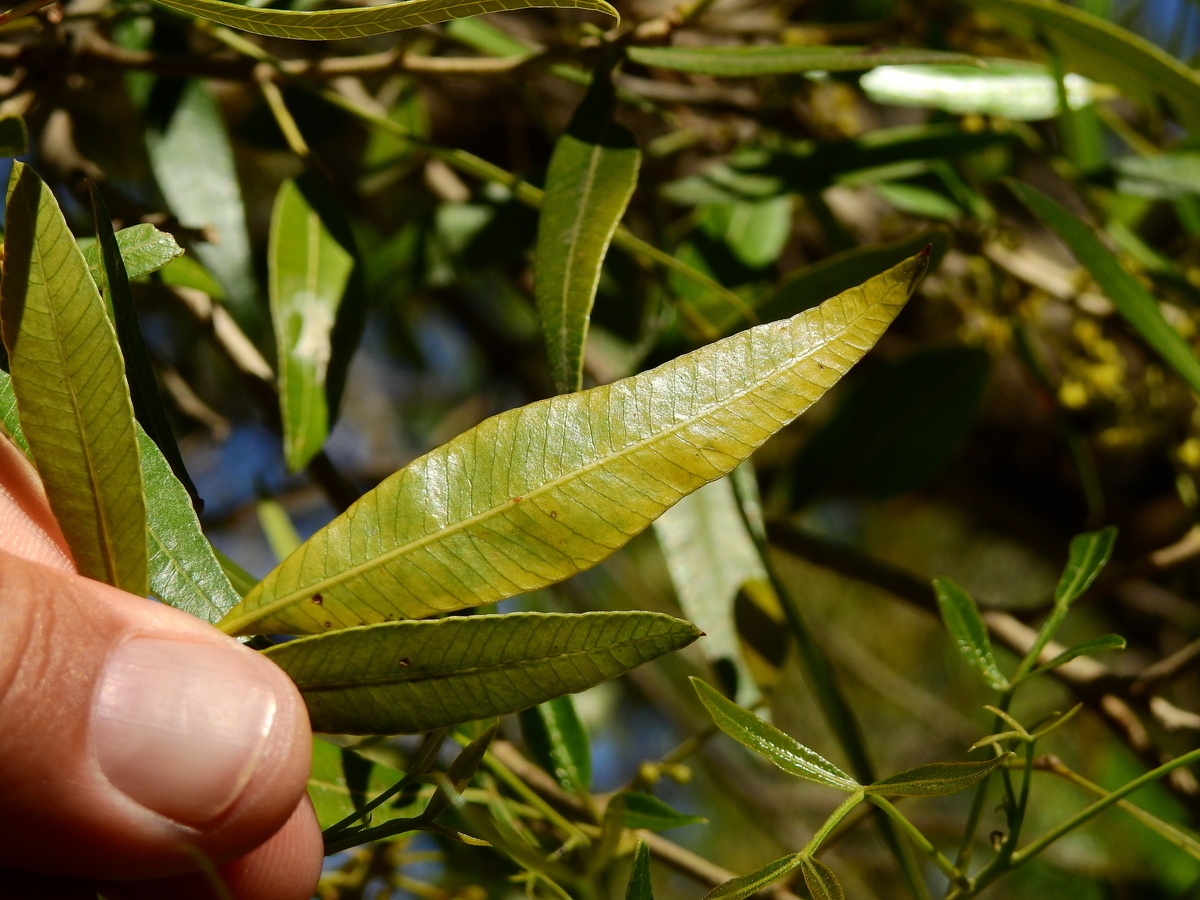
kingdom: Plantae
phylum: Tracheophyta
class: Magnoliopsida
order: Sapindales
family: Anacardiaceae
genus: Lithraea
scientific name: Lithraea molleoides
